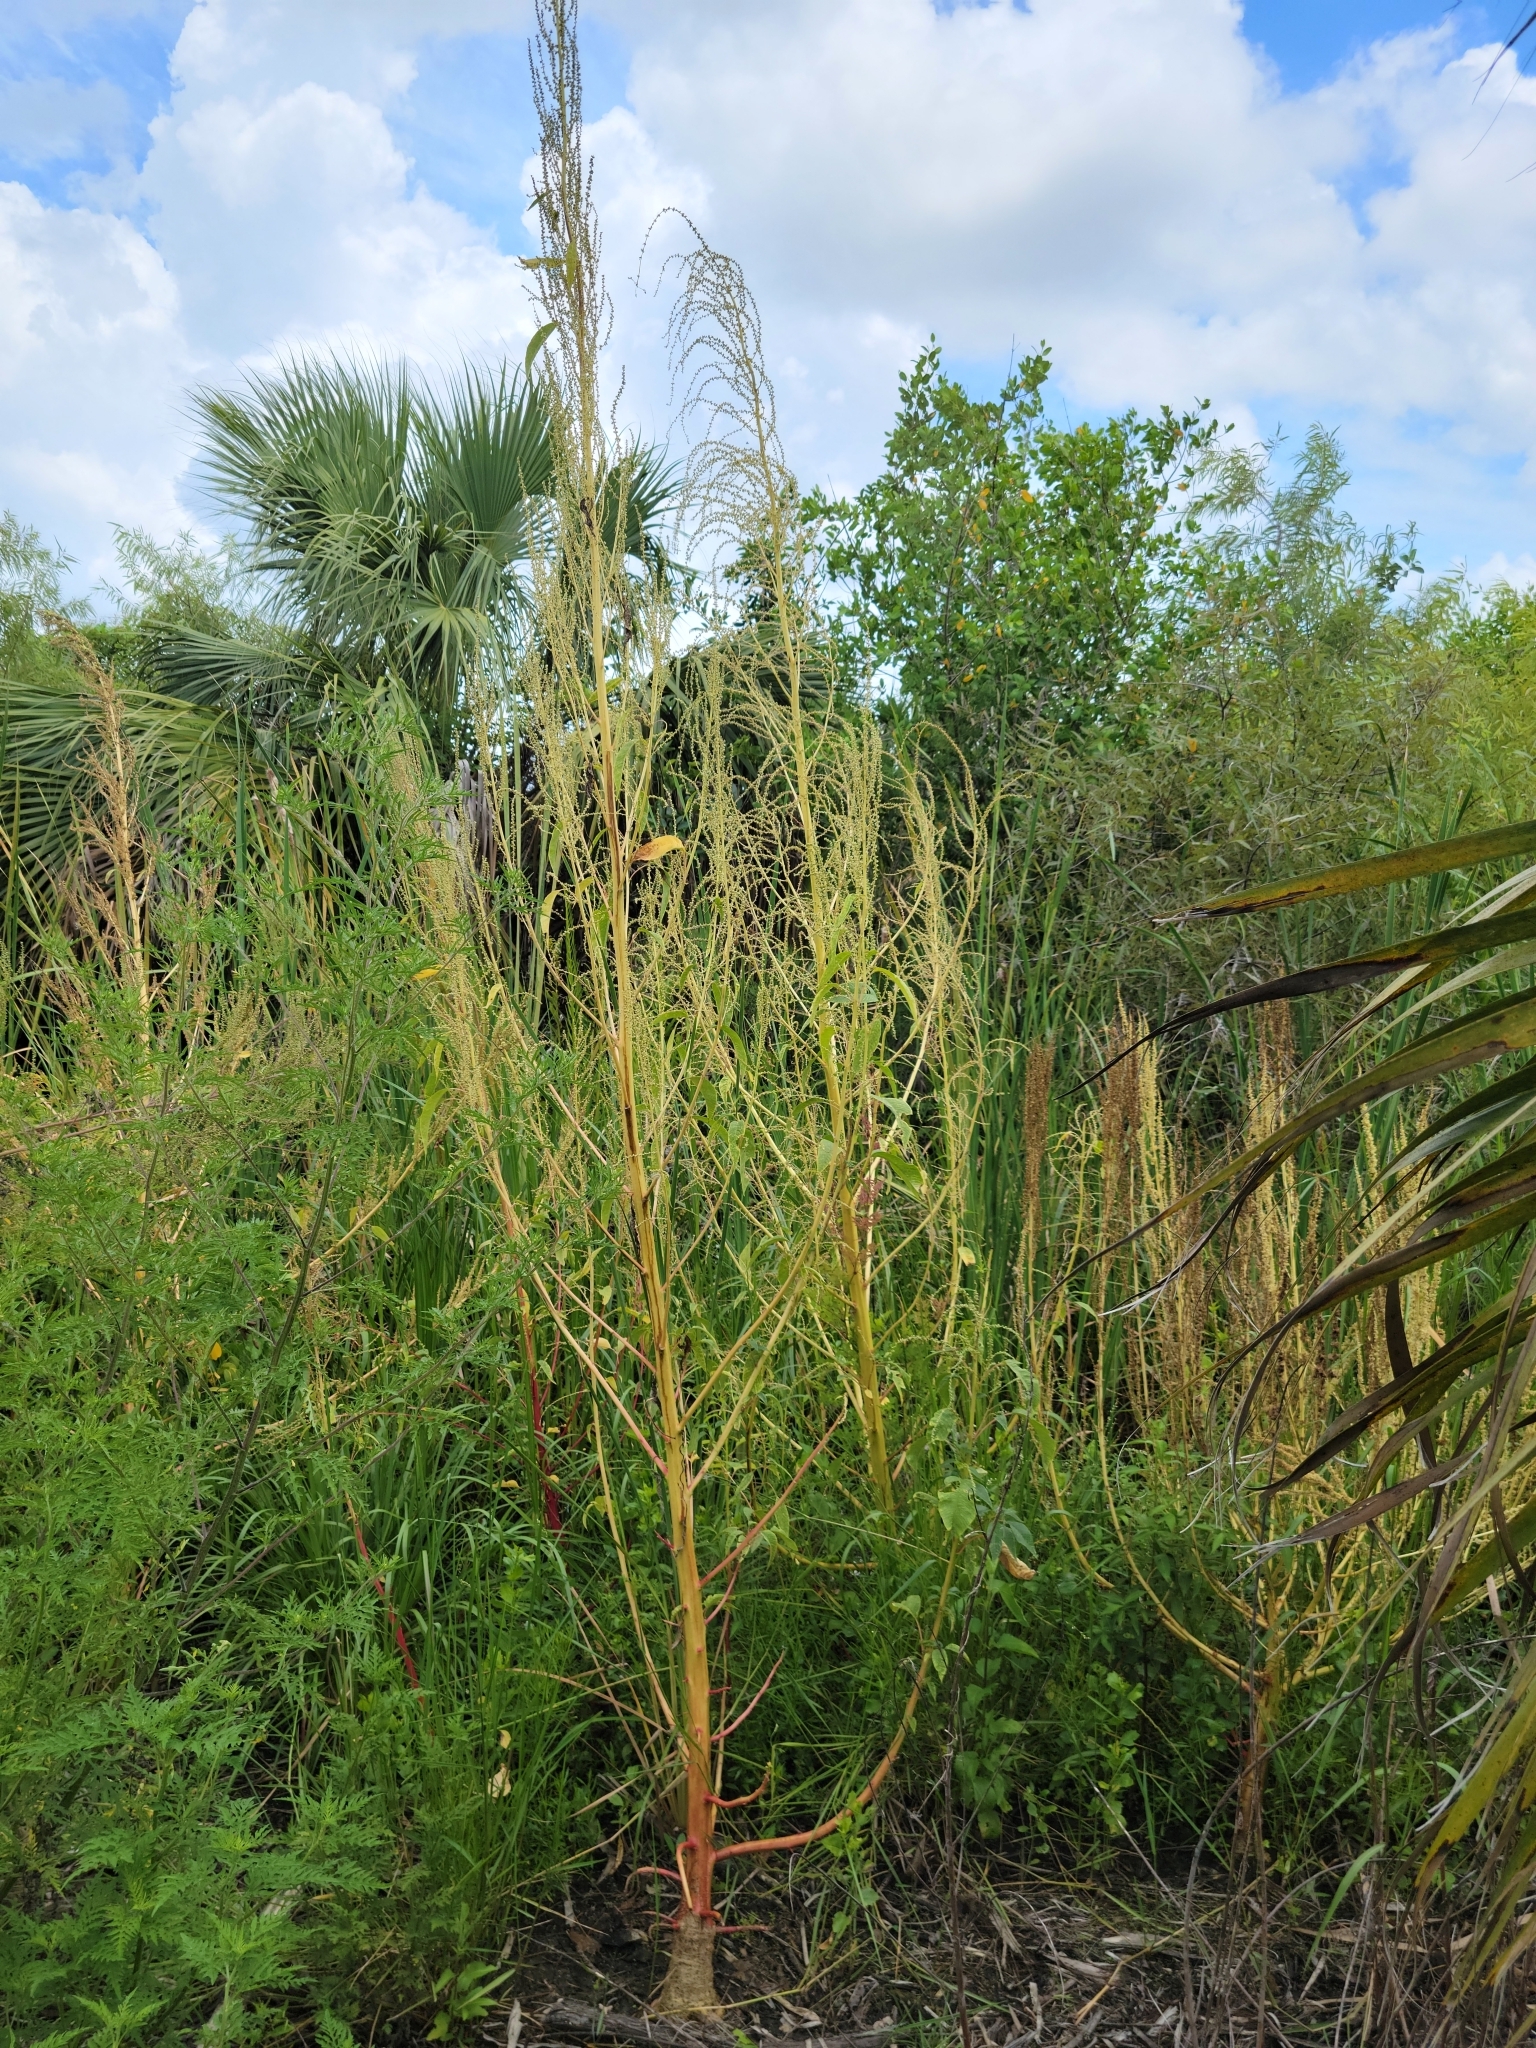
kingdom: Plantae
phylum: Tracheophyta
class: Magnoliopsida
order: Caryophyllales
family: Amaranthaceae
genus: Amaranthus
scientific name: Amaranthus australis
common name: Southern amaranth
